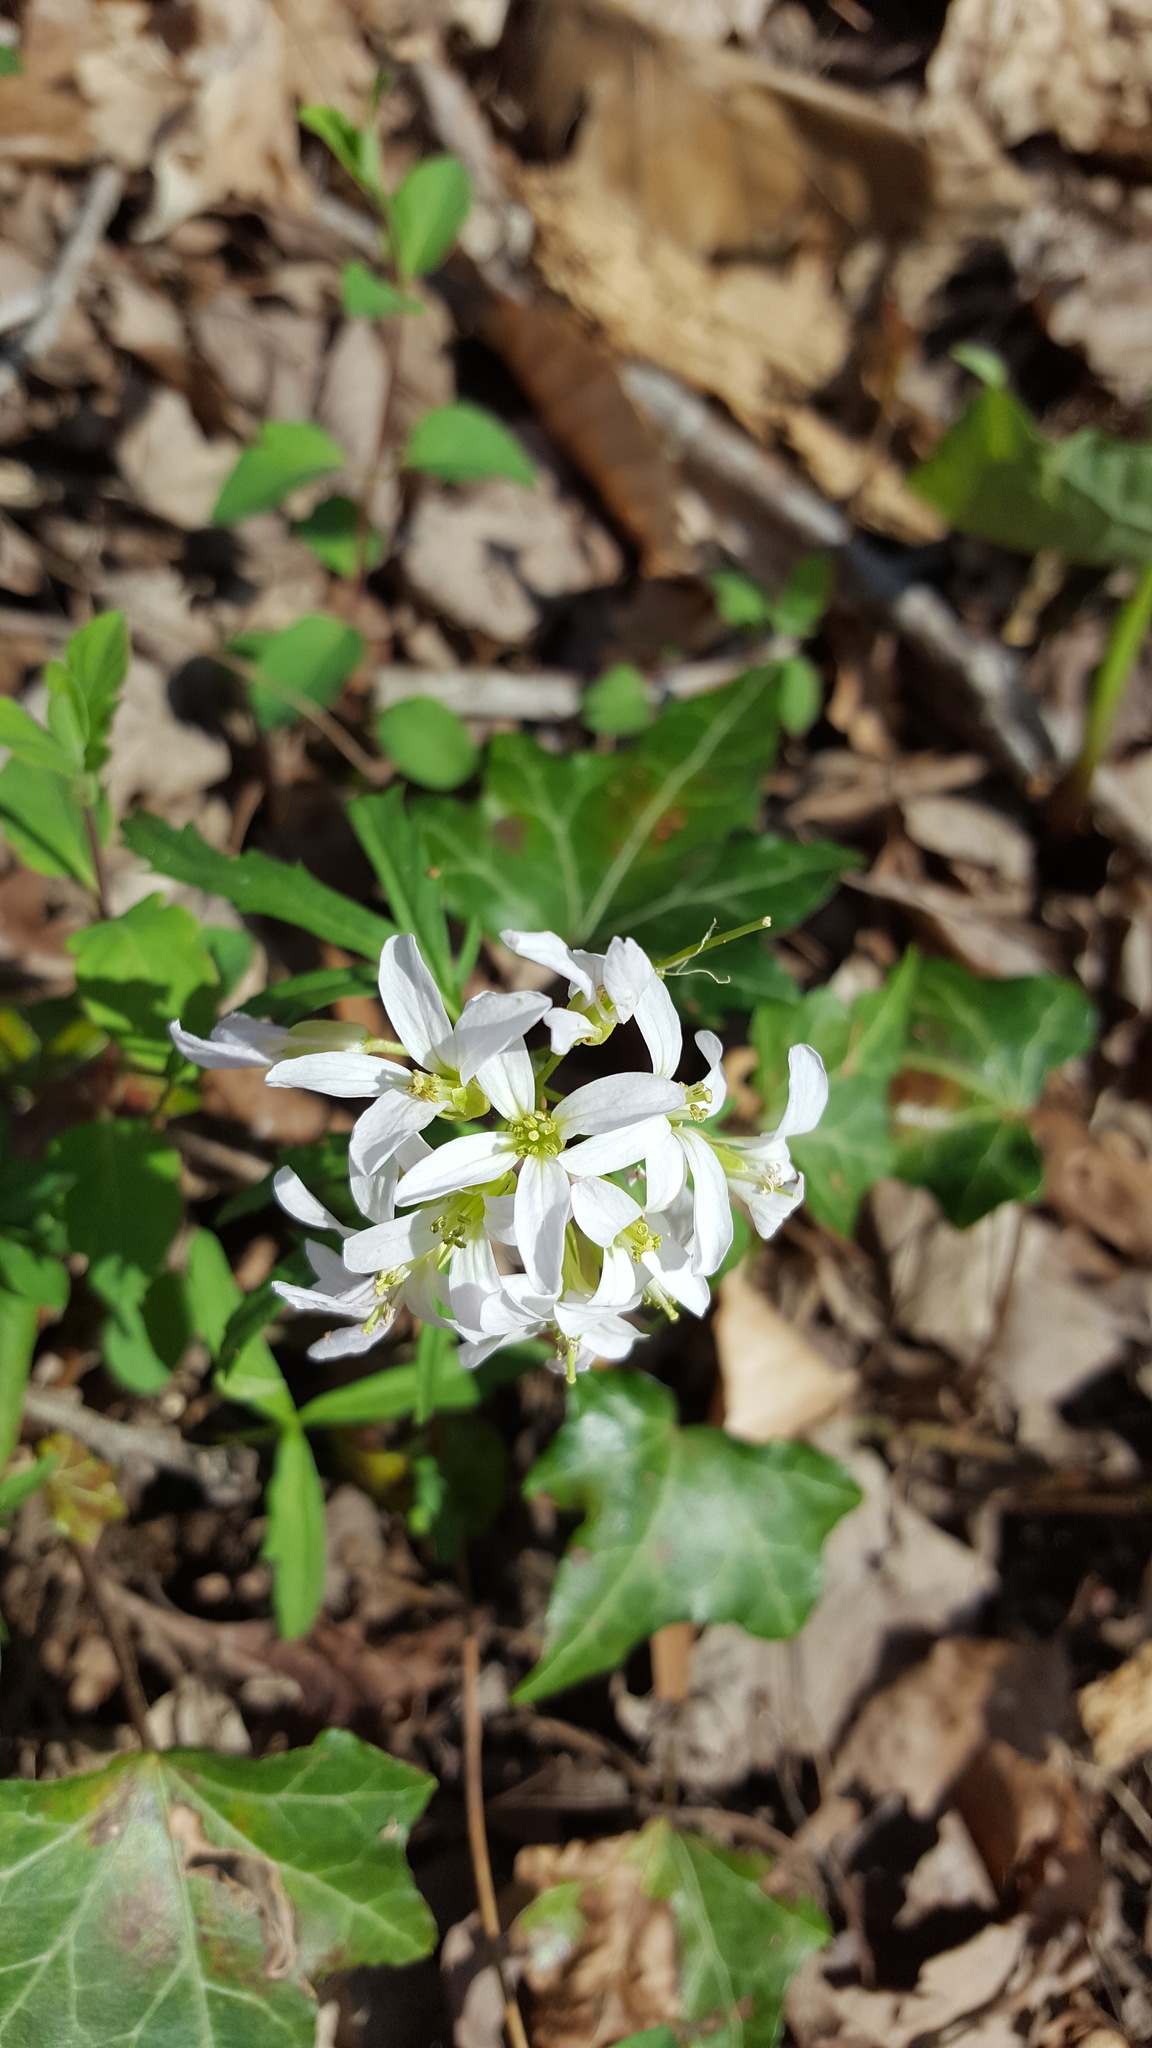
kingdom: Plantae
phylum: Tracheophyta
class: Magnoliopsida
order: Brassicales
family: Brassicaceae
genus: Cardamine
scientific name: Cardamine concatenata
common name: Cut-leaf toothcup
